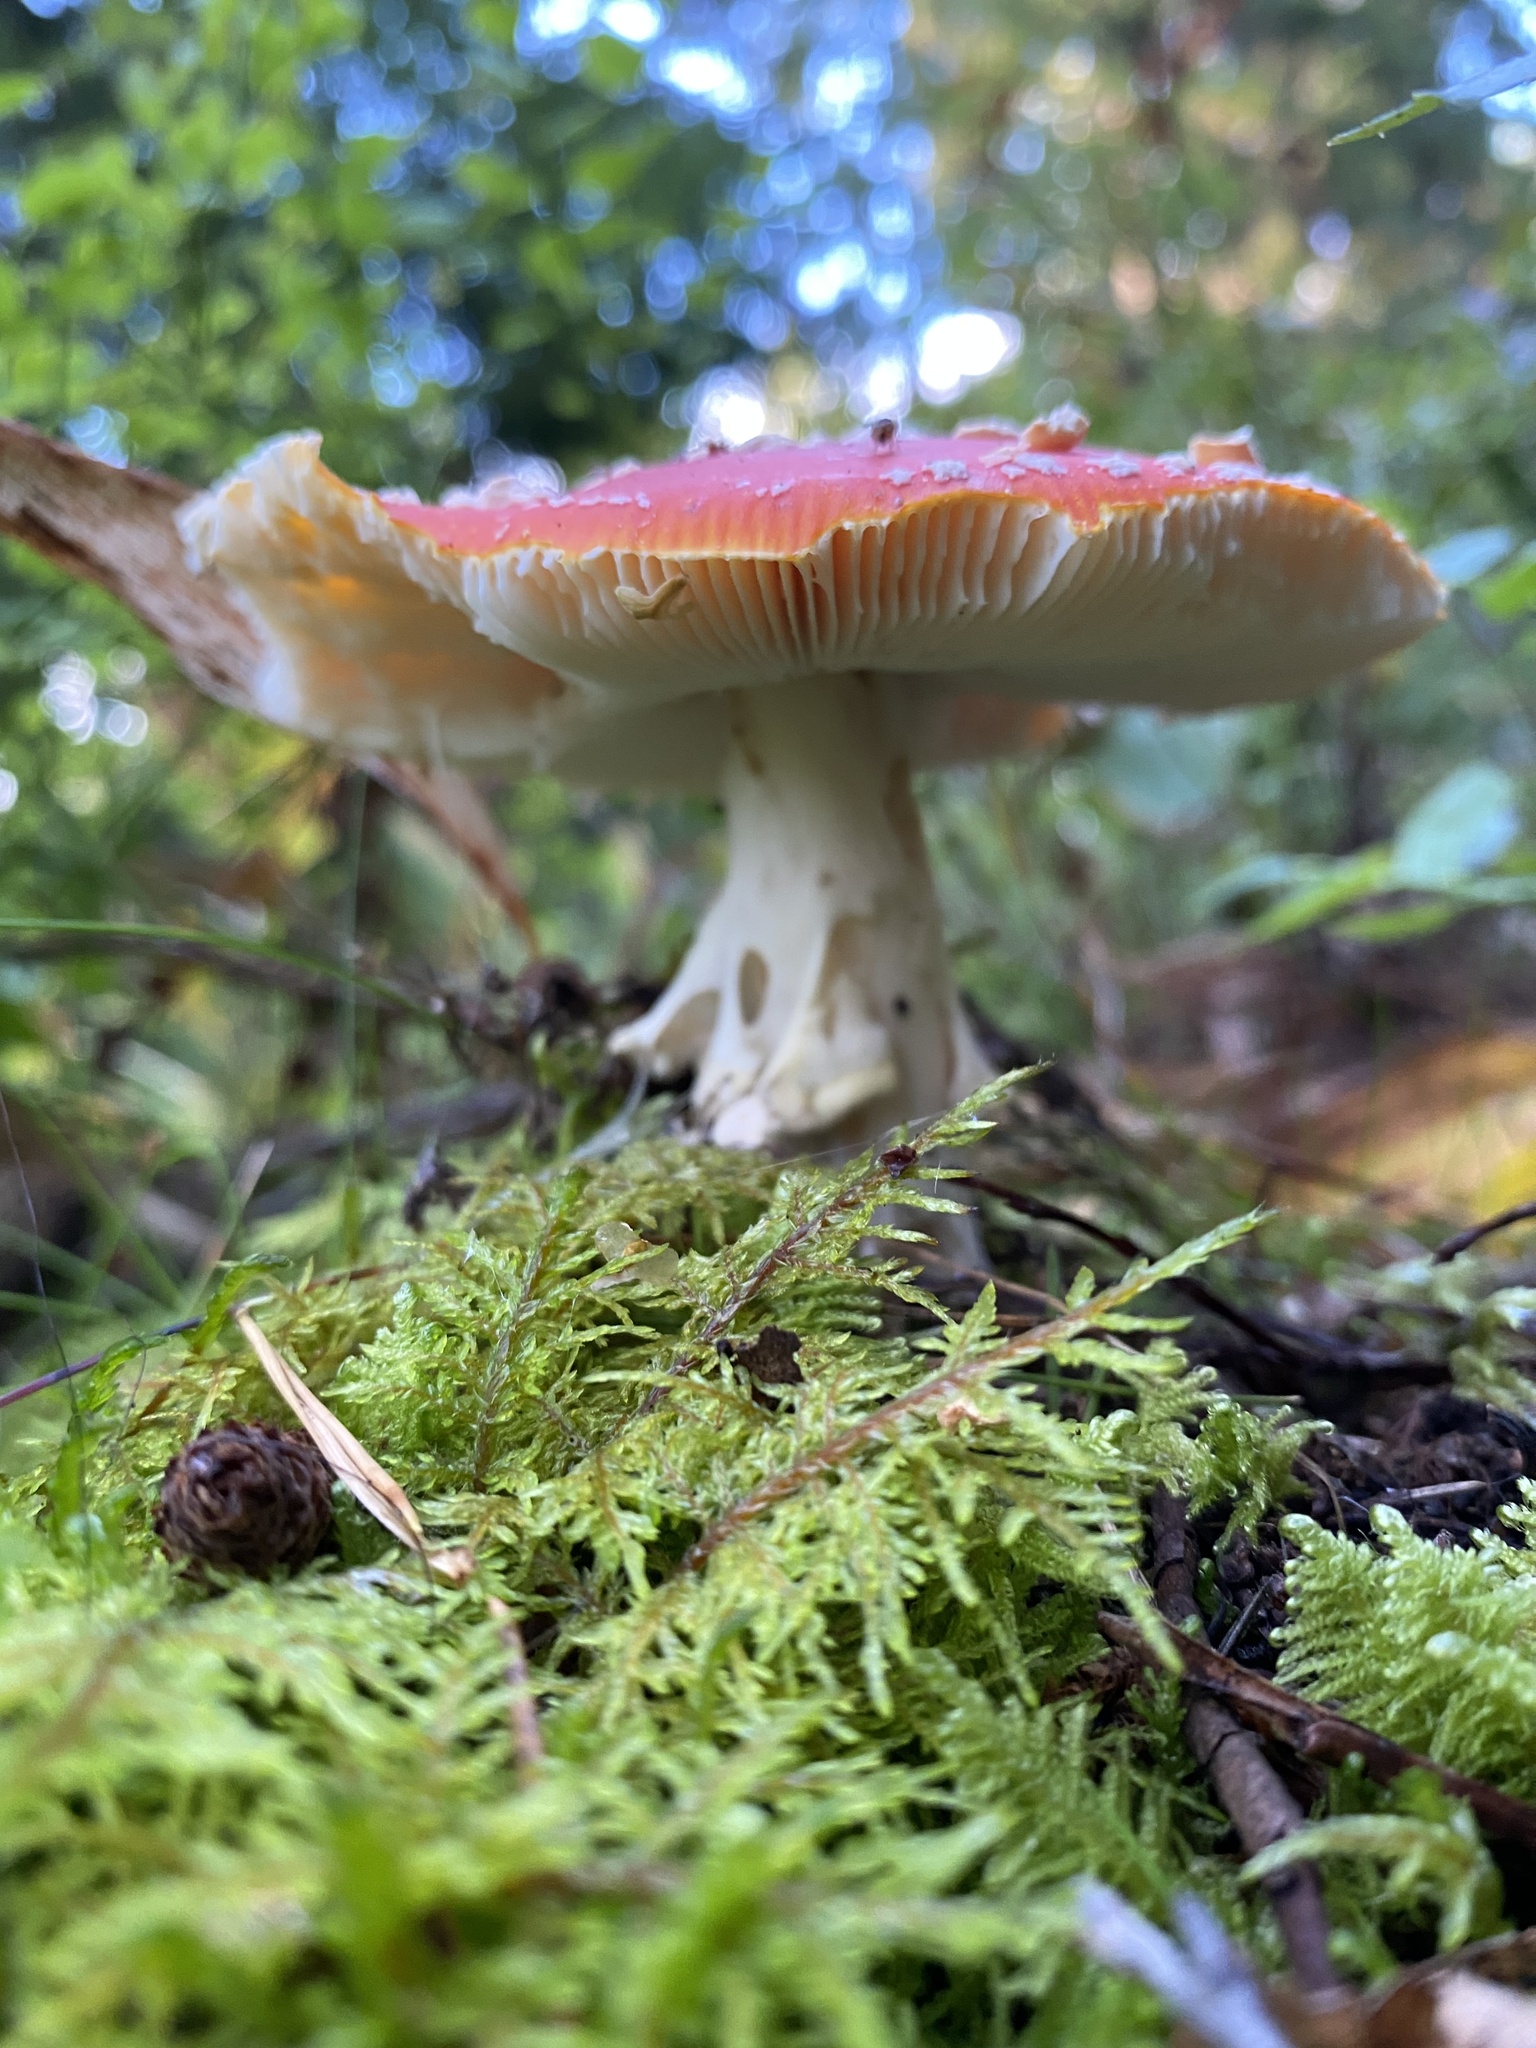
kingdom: Fungi
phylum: Basidiomycota
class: Agaricomycetes
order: Agaricales
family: Amanitaceae
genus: Amanita
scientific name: Amanita muscaria
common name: Fly agaric
